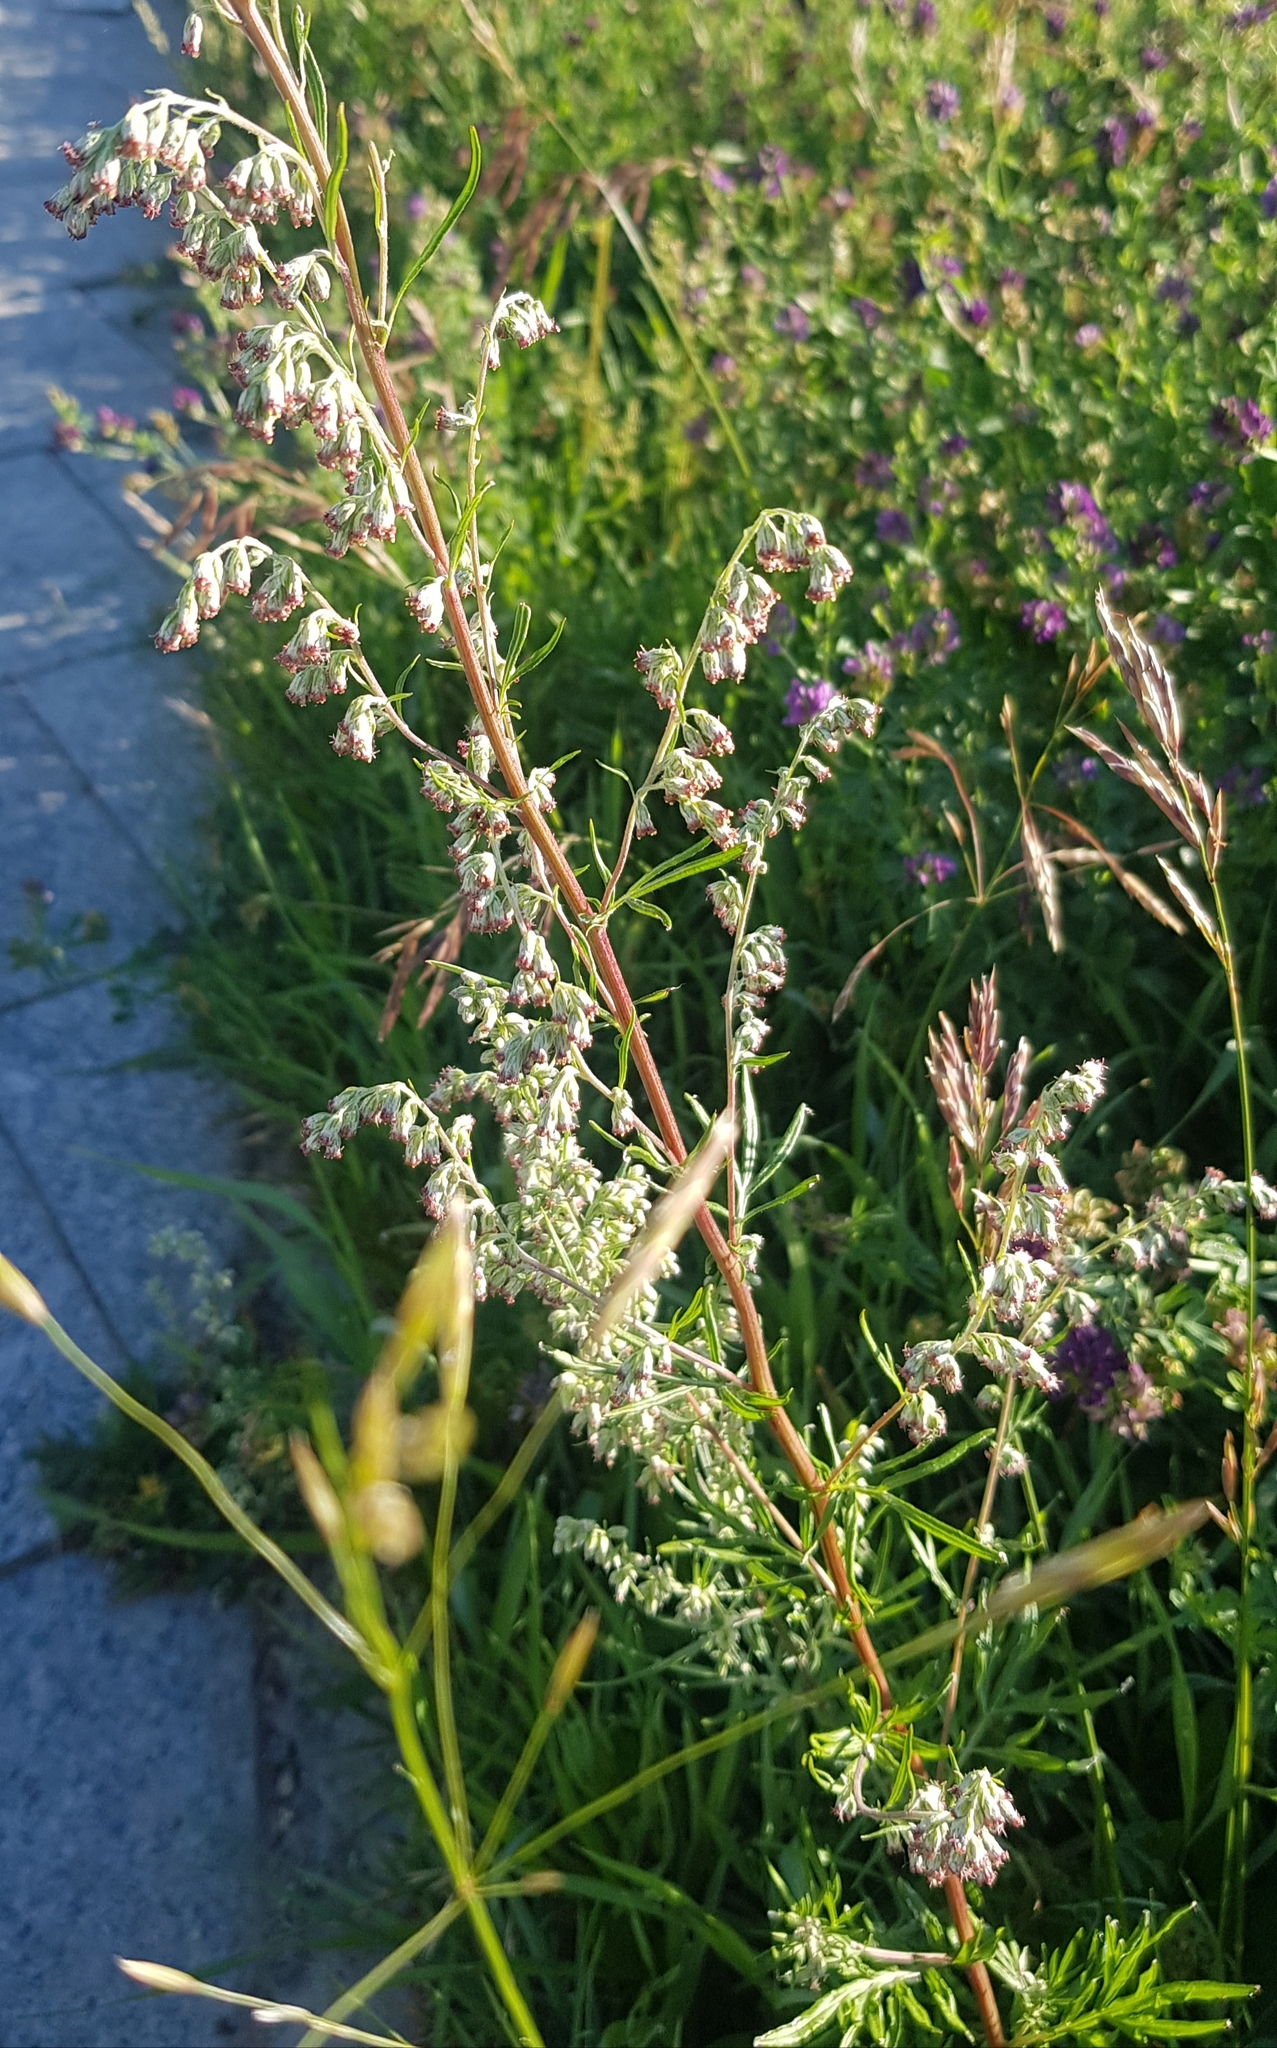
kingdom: Plantae
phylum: Tracheophyta
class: Magnoliopsida
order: Asterales
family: Asteraceae
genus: Artemisia
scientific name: Artemisia vulgaris
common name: Mugwort
